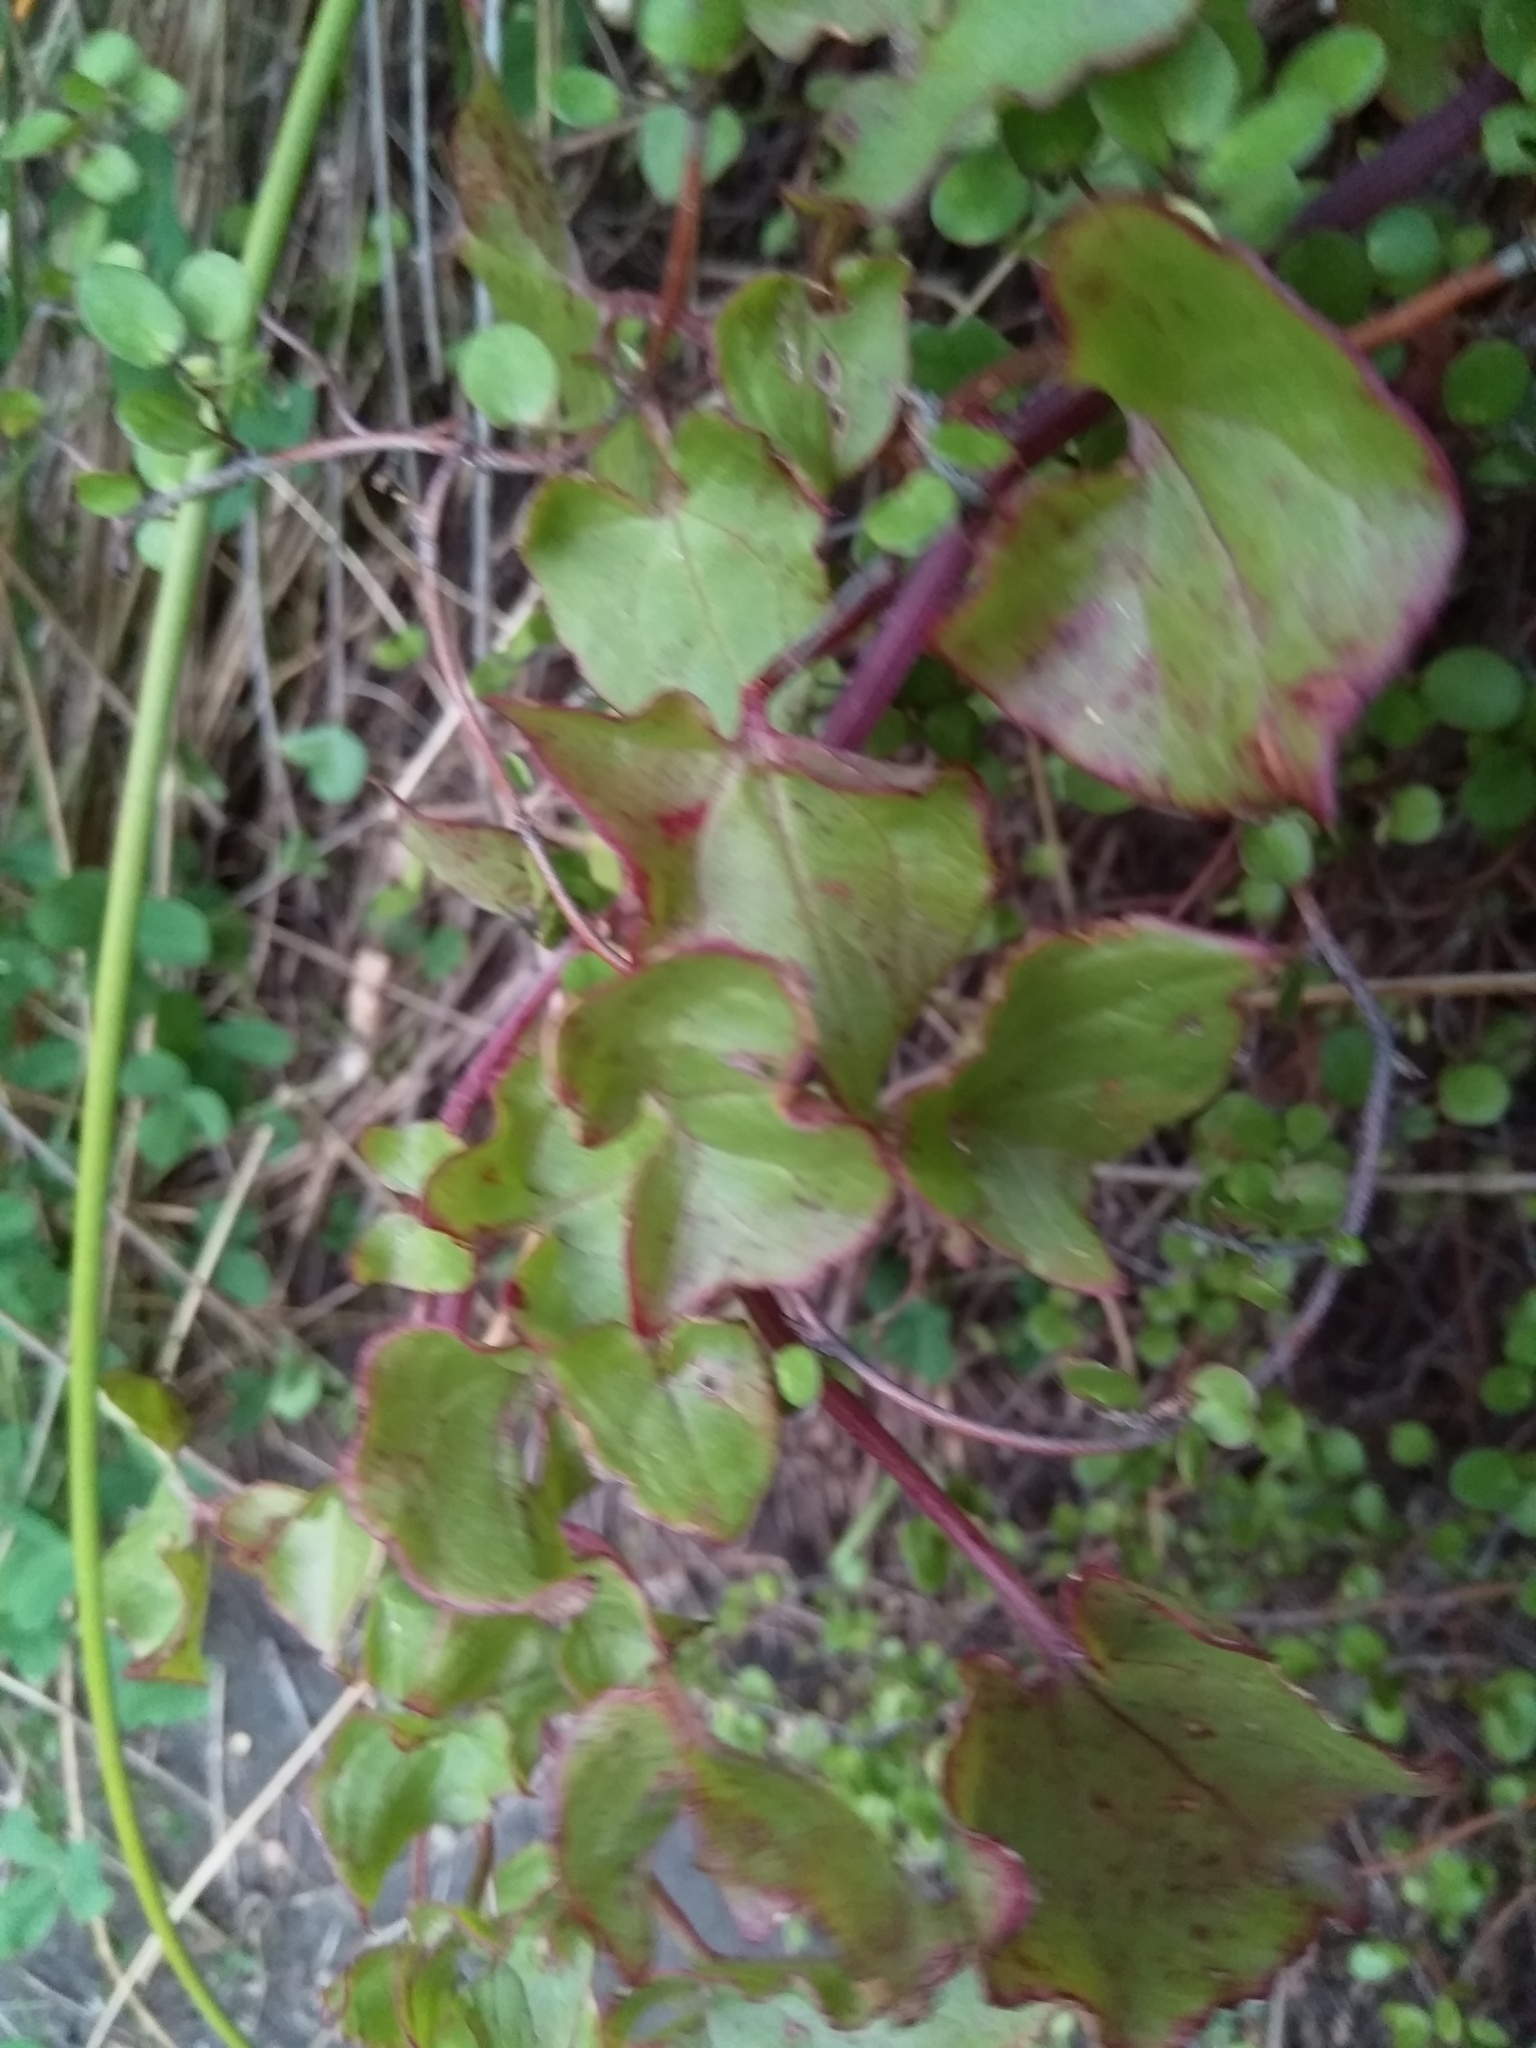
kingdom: Plantae
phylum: Tracheophyta
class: Magnoliopsida
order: Caryophyllales
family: Polygonaceae
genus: Rumex
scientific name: Rumex sagittatus
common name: Climbing dock
